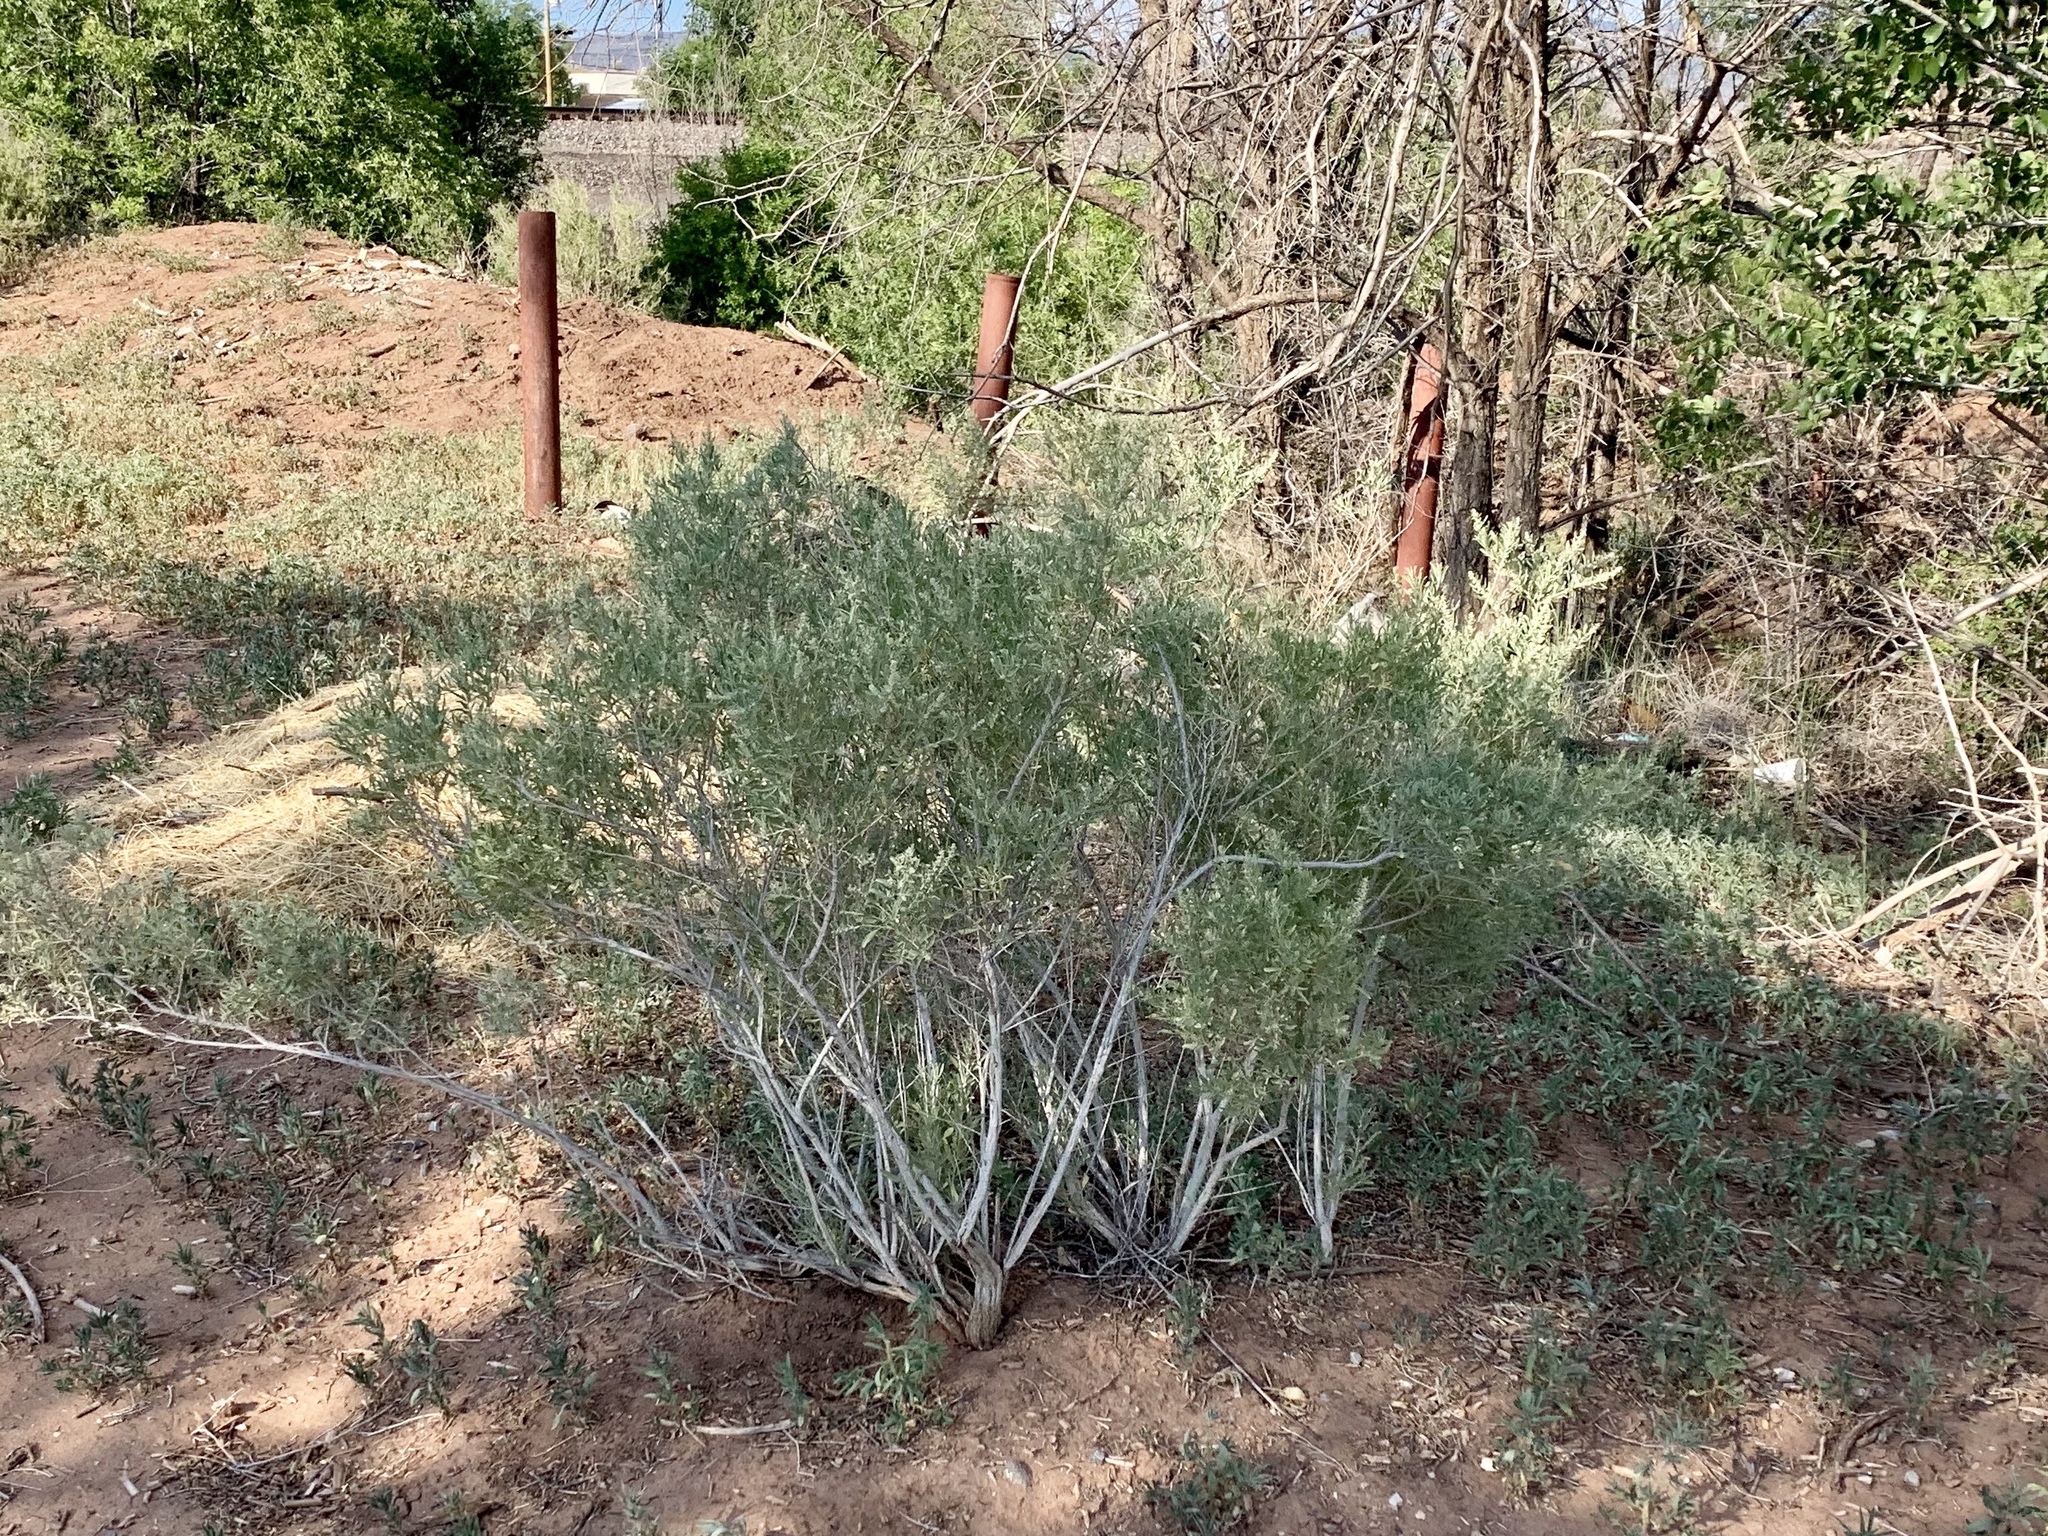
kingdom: Plantae
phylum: Tracheophyta
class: Magnoliopsida
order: Caryophyllales
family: Amaranthaceae
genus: Atriplex
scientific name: Atriplex canescens
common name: Four-wing saltbush
